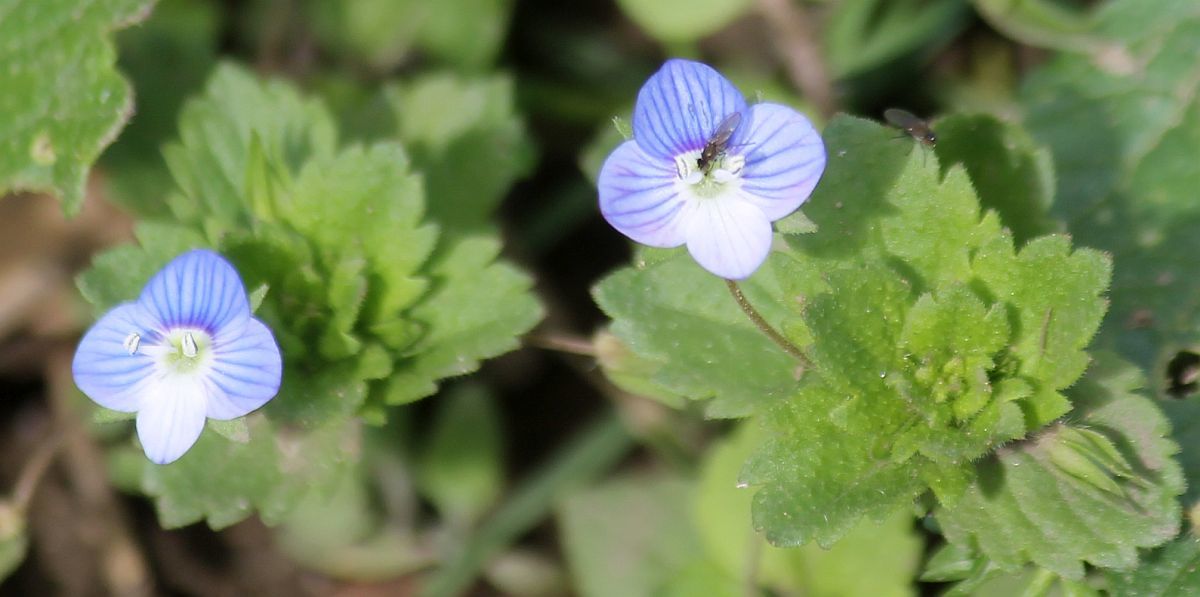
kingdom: Plantae
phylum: Tracheophyta
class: Magnoliopsida
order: Lamiales
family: Plantaginaceae
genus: Veronica
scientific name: Veronica persica
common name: Common field-speedwell
